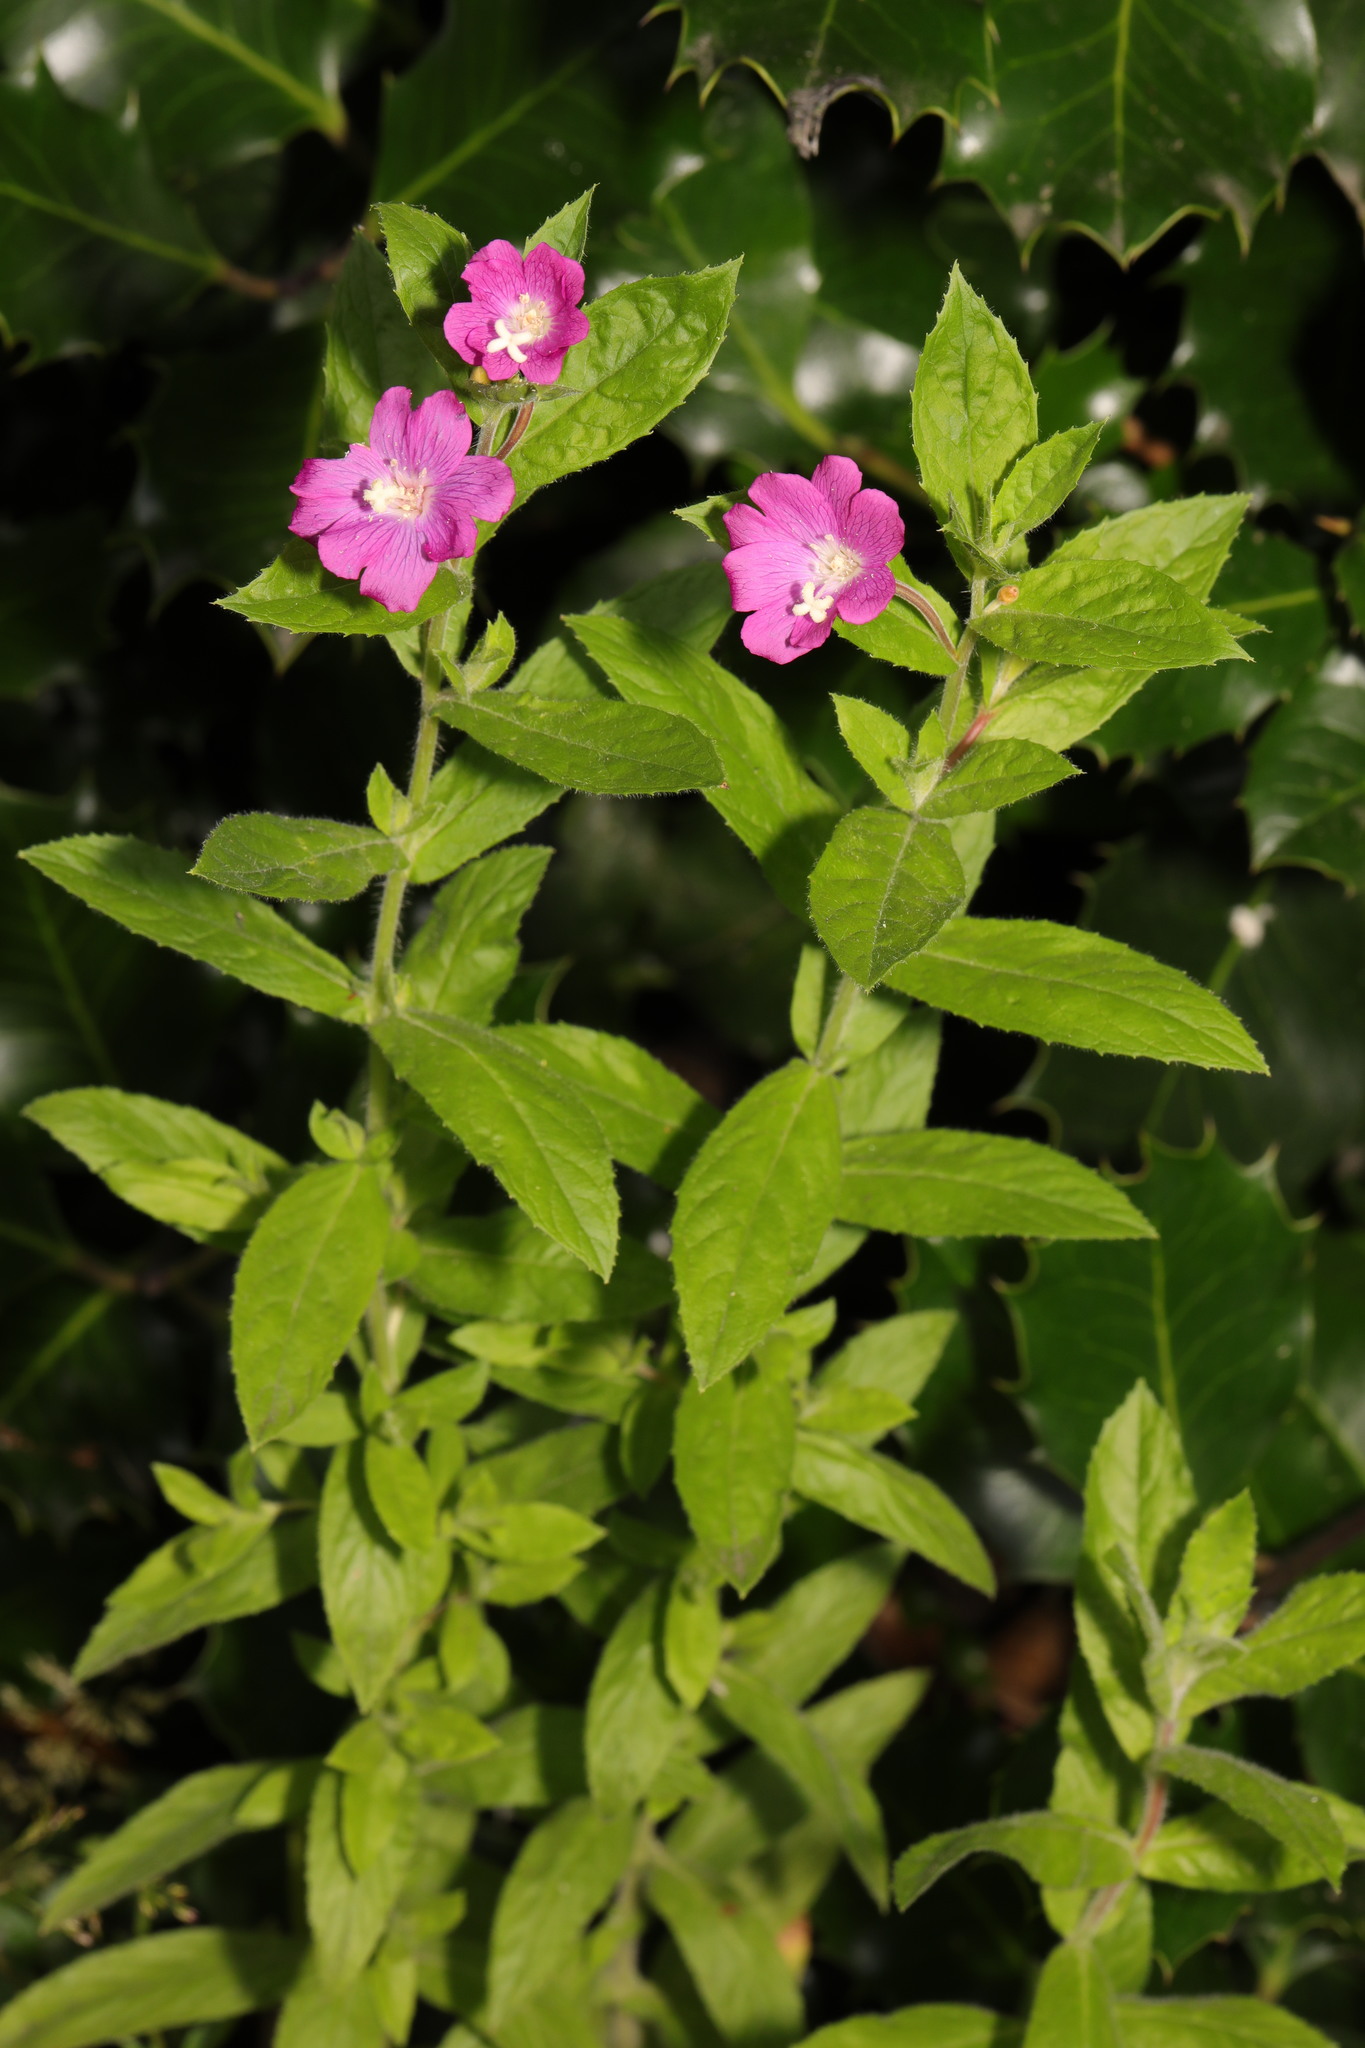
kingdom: Plantae
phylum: Tracheophyta
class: Magnoliopsida
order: Myrtales
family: Onagraceae
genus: Epilobium
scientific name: Epilobium hirsutum
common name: Great willowherb
